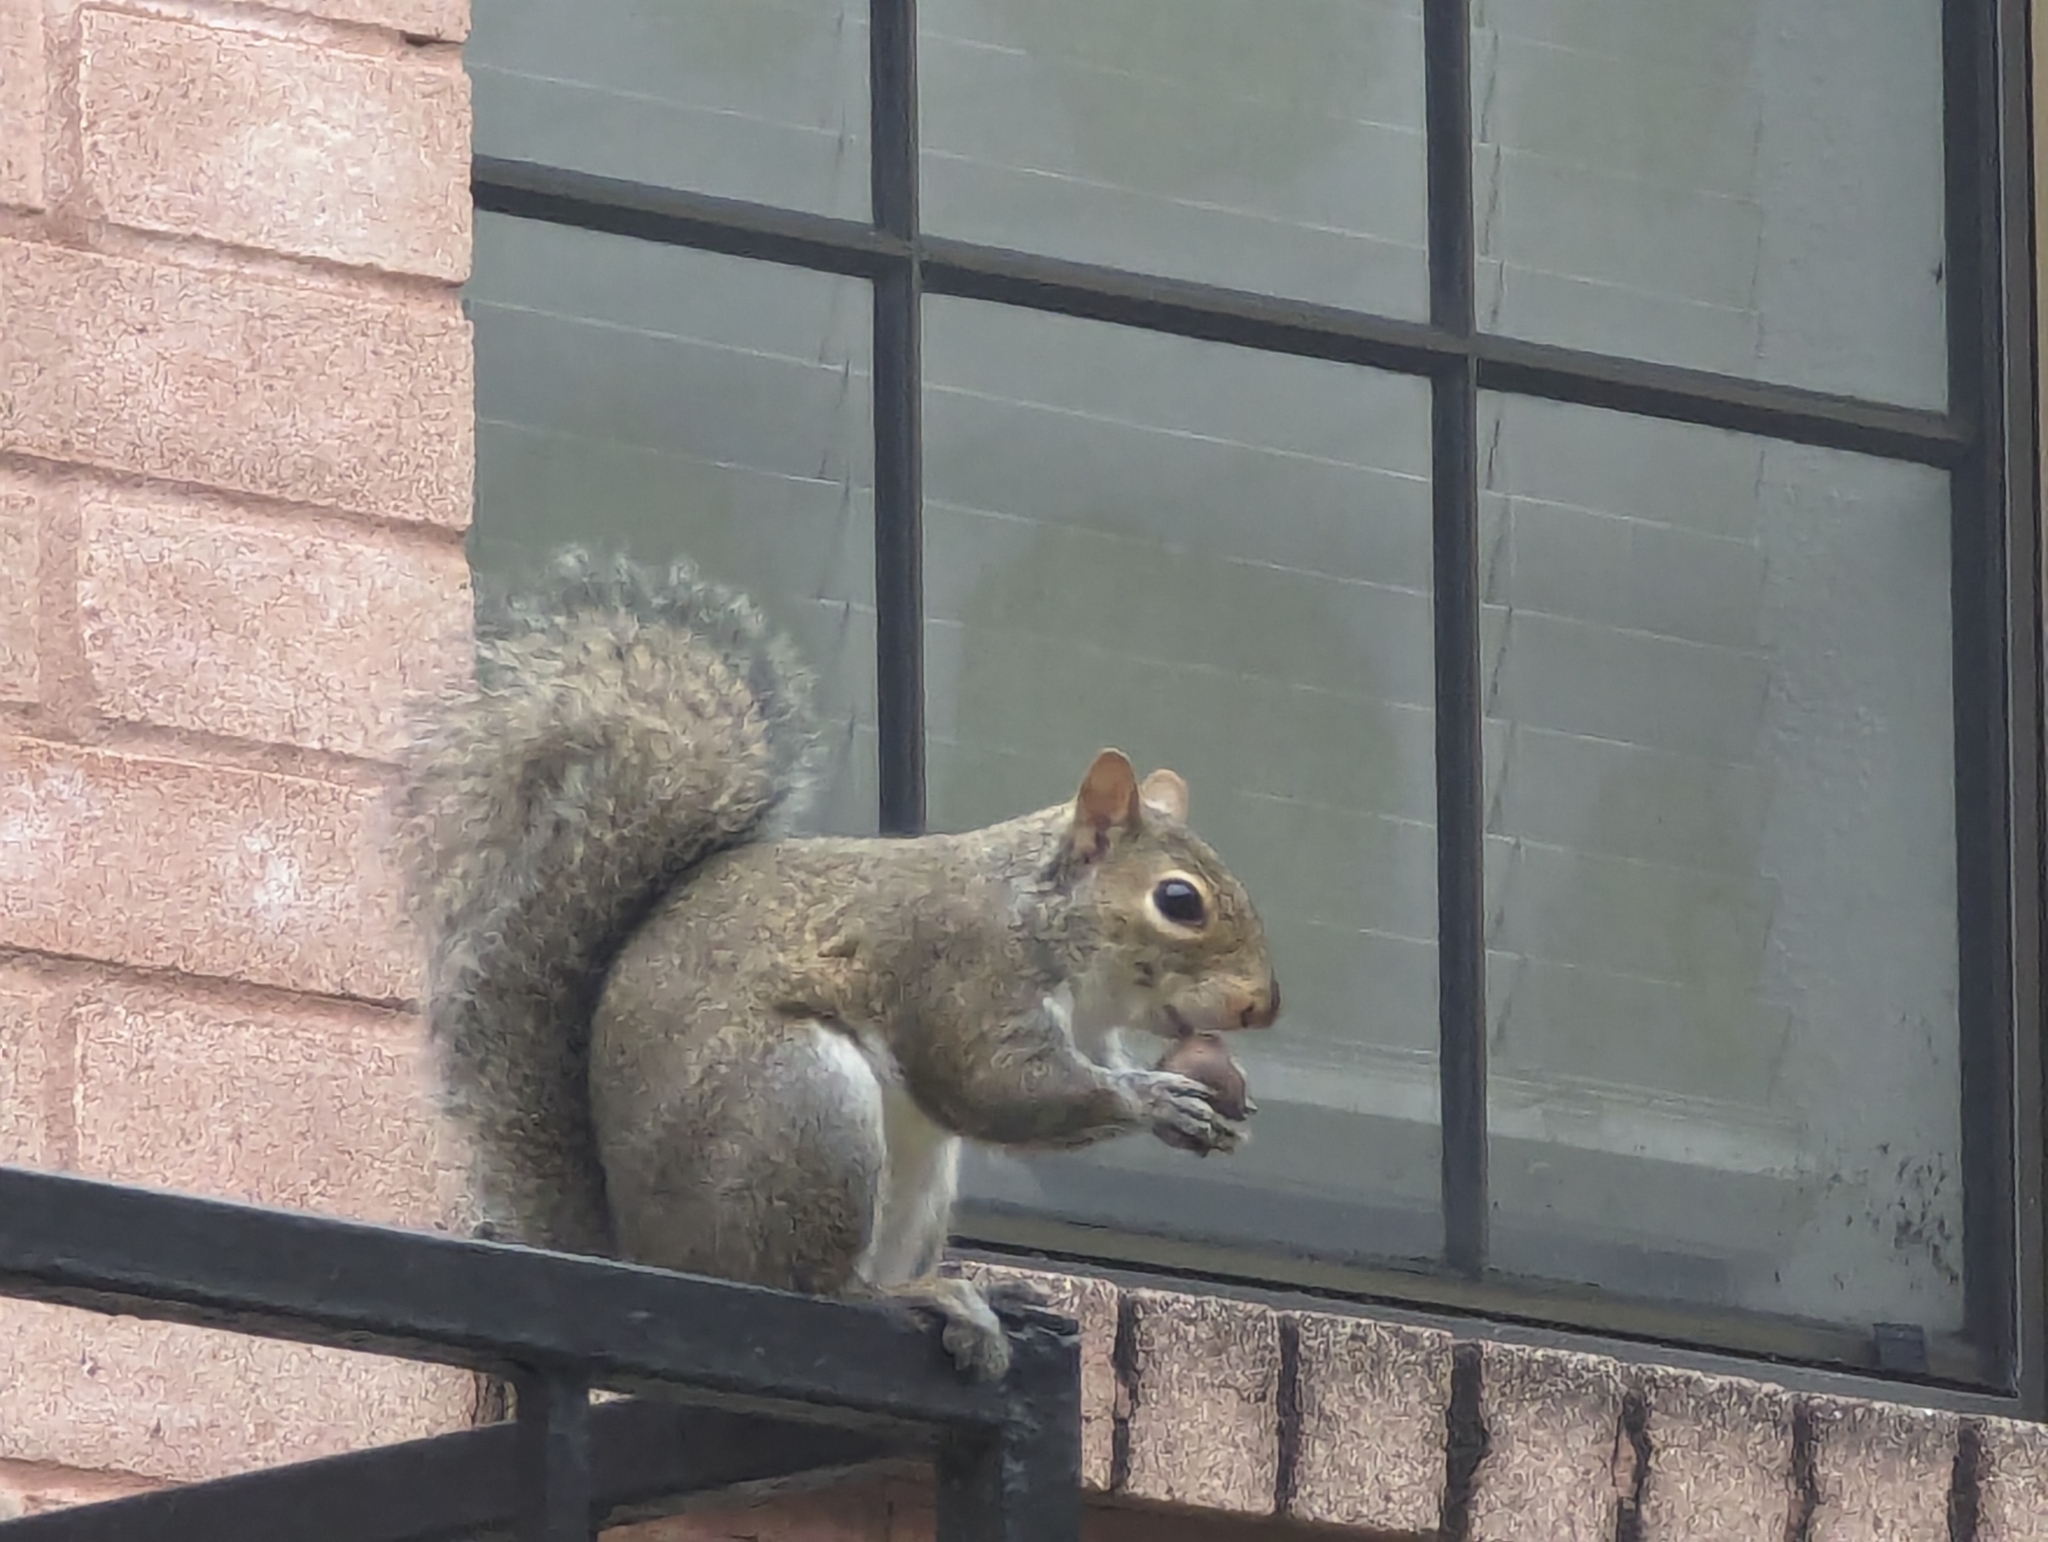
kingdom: Animalia
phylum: Chordata
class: Mammalia
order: Rodentia
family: Sciuridae
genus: Sciurus
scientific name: Sciurus carolinensis
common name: Eastern gray squirrel
